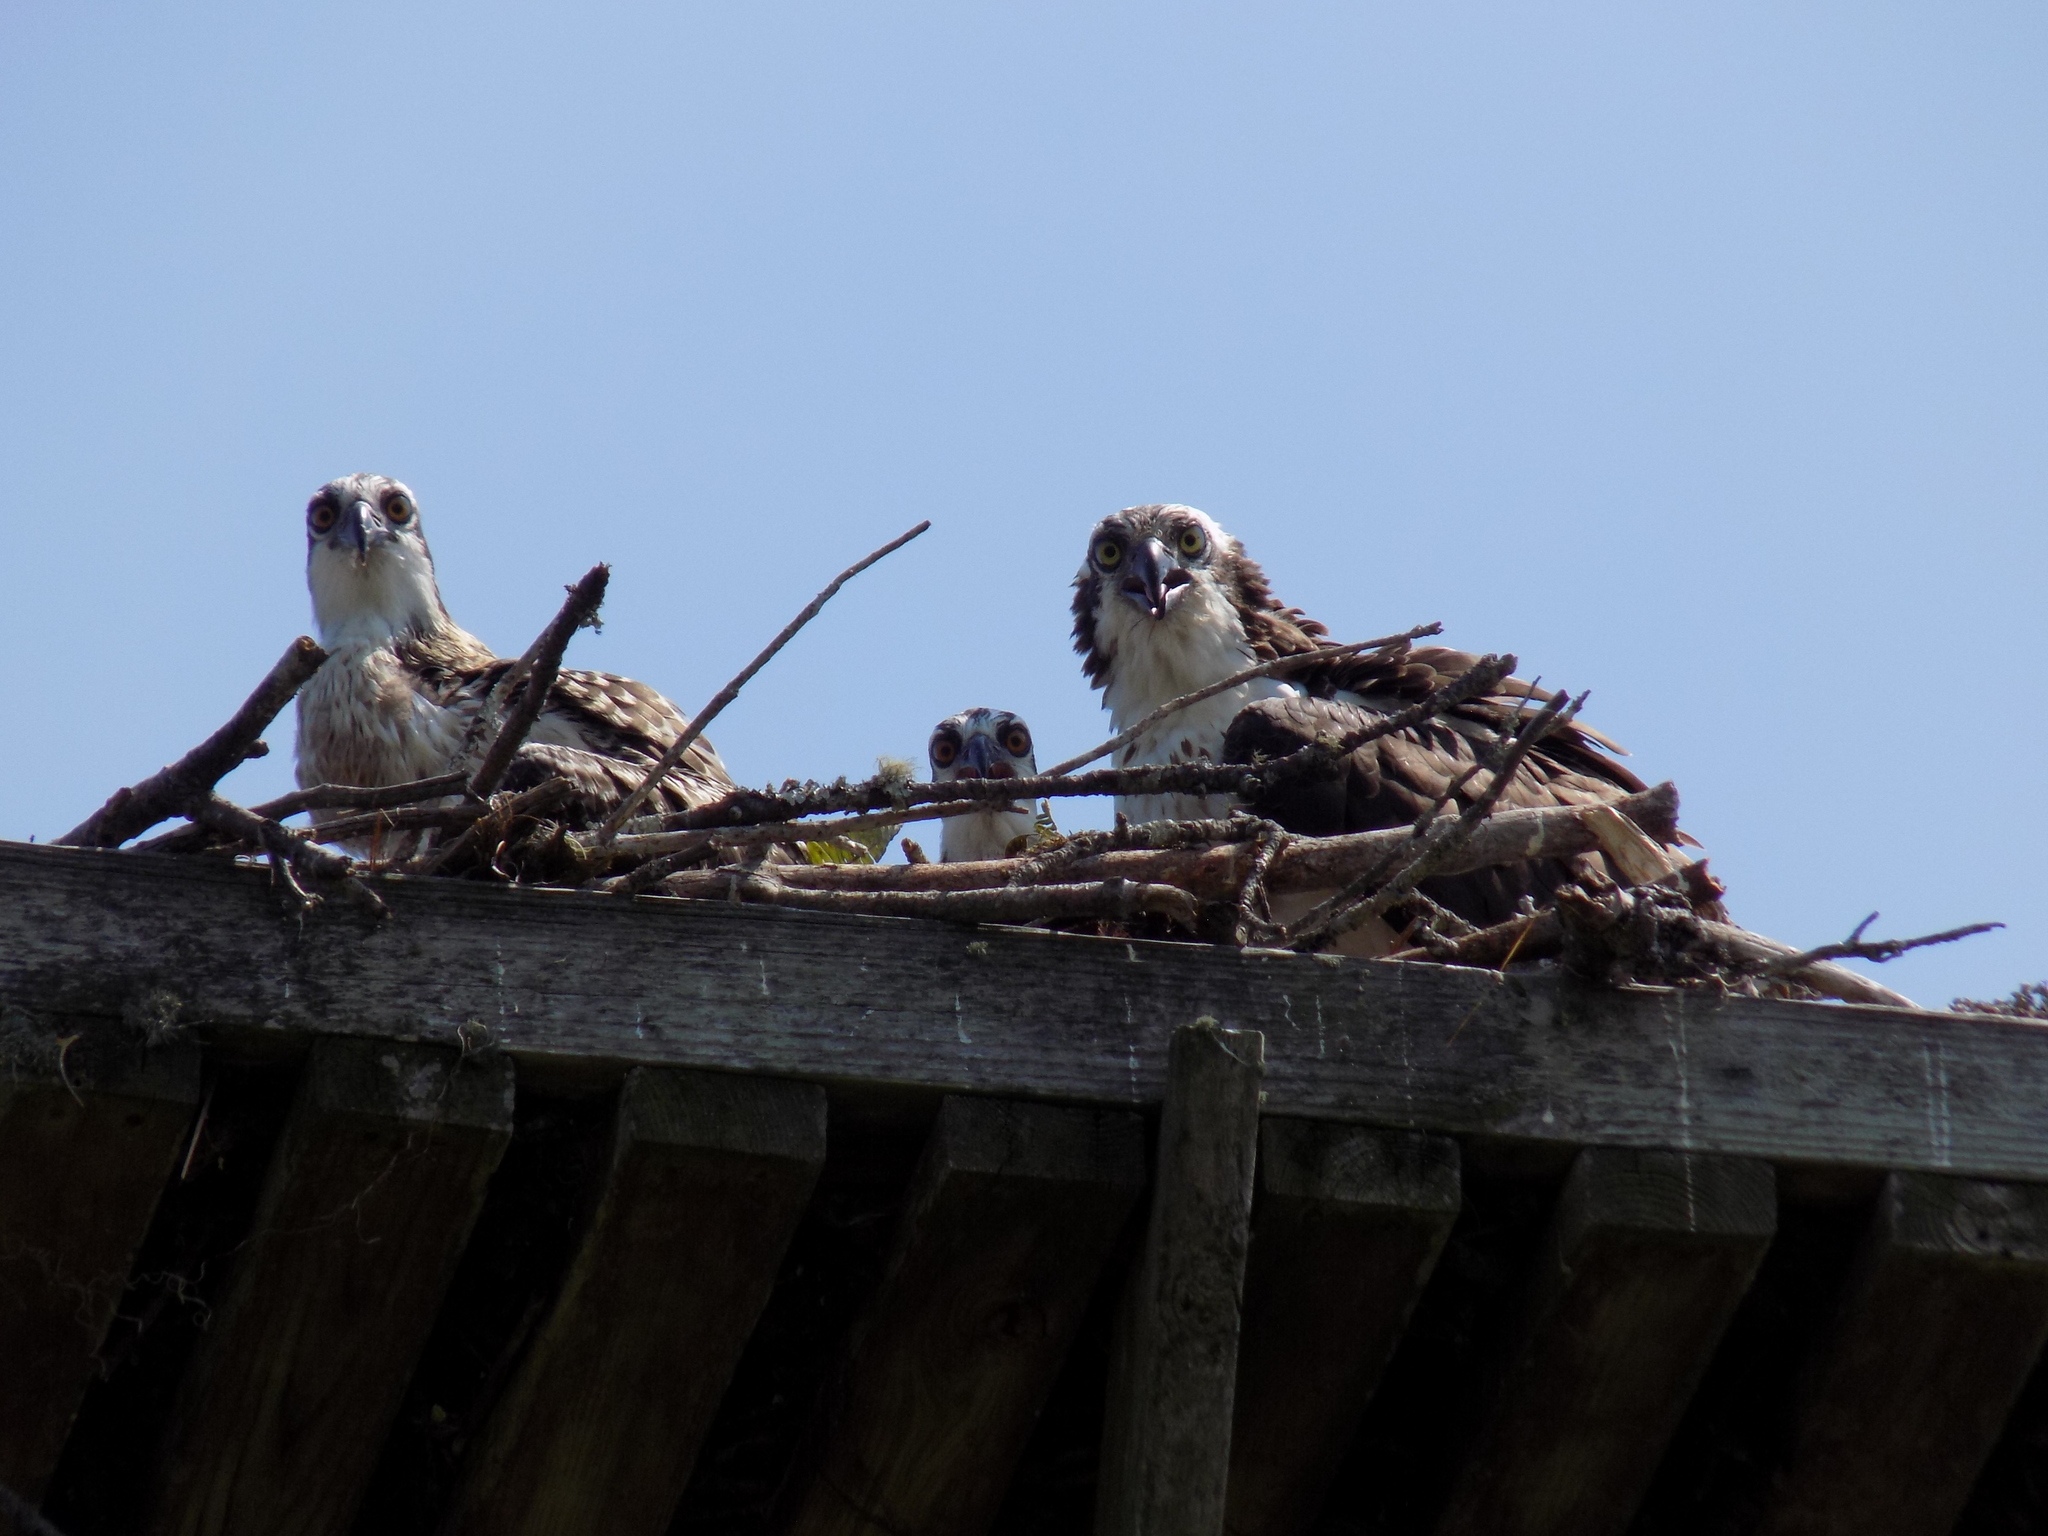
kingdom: Animalia
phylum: Chordata
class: Aves
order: Accipitriformes
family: Pandionidae
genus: Pandion
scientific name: Pandion haliaetus
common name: Osprey
